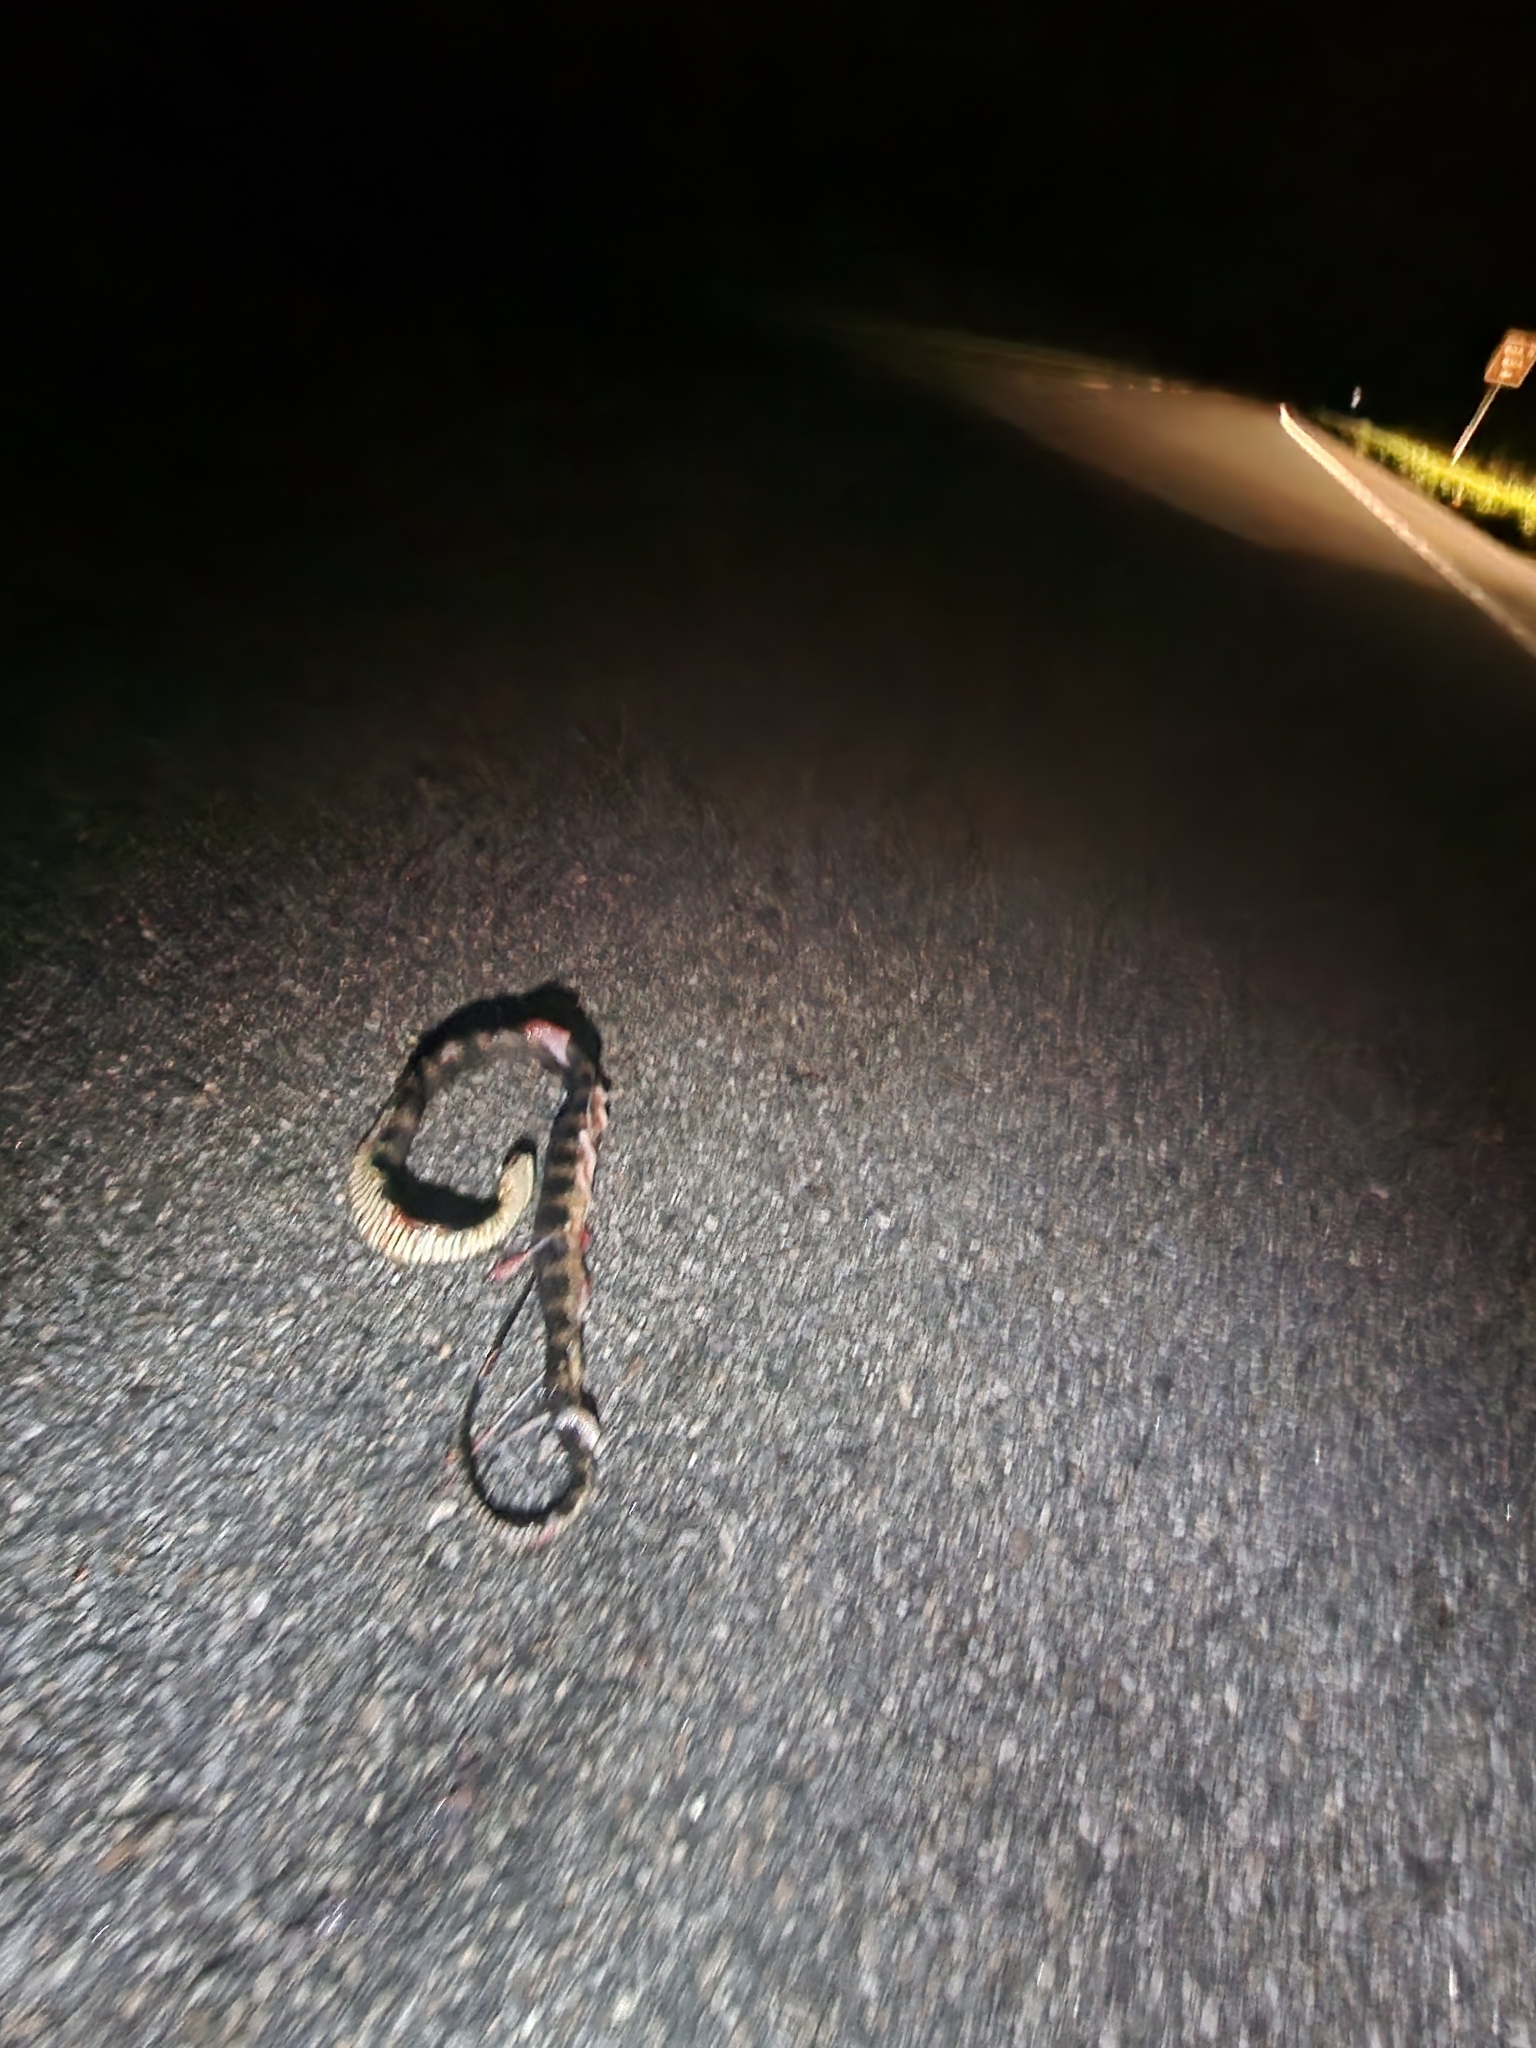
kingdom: Animalia
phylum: Chordata
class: Squamata
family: Colubridae
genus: Nerodia
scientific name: Nerodia fasciata
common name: Southern water snake
